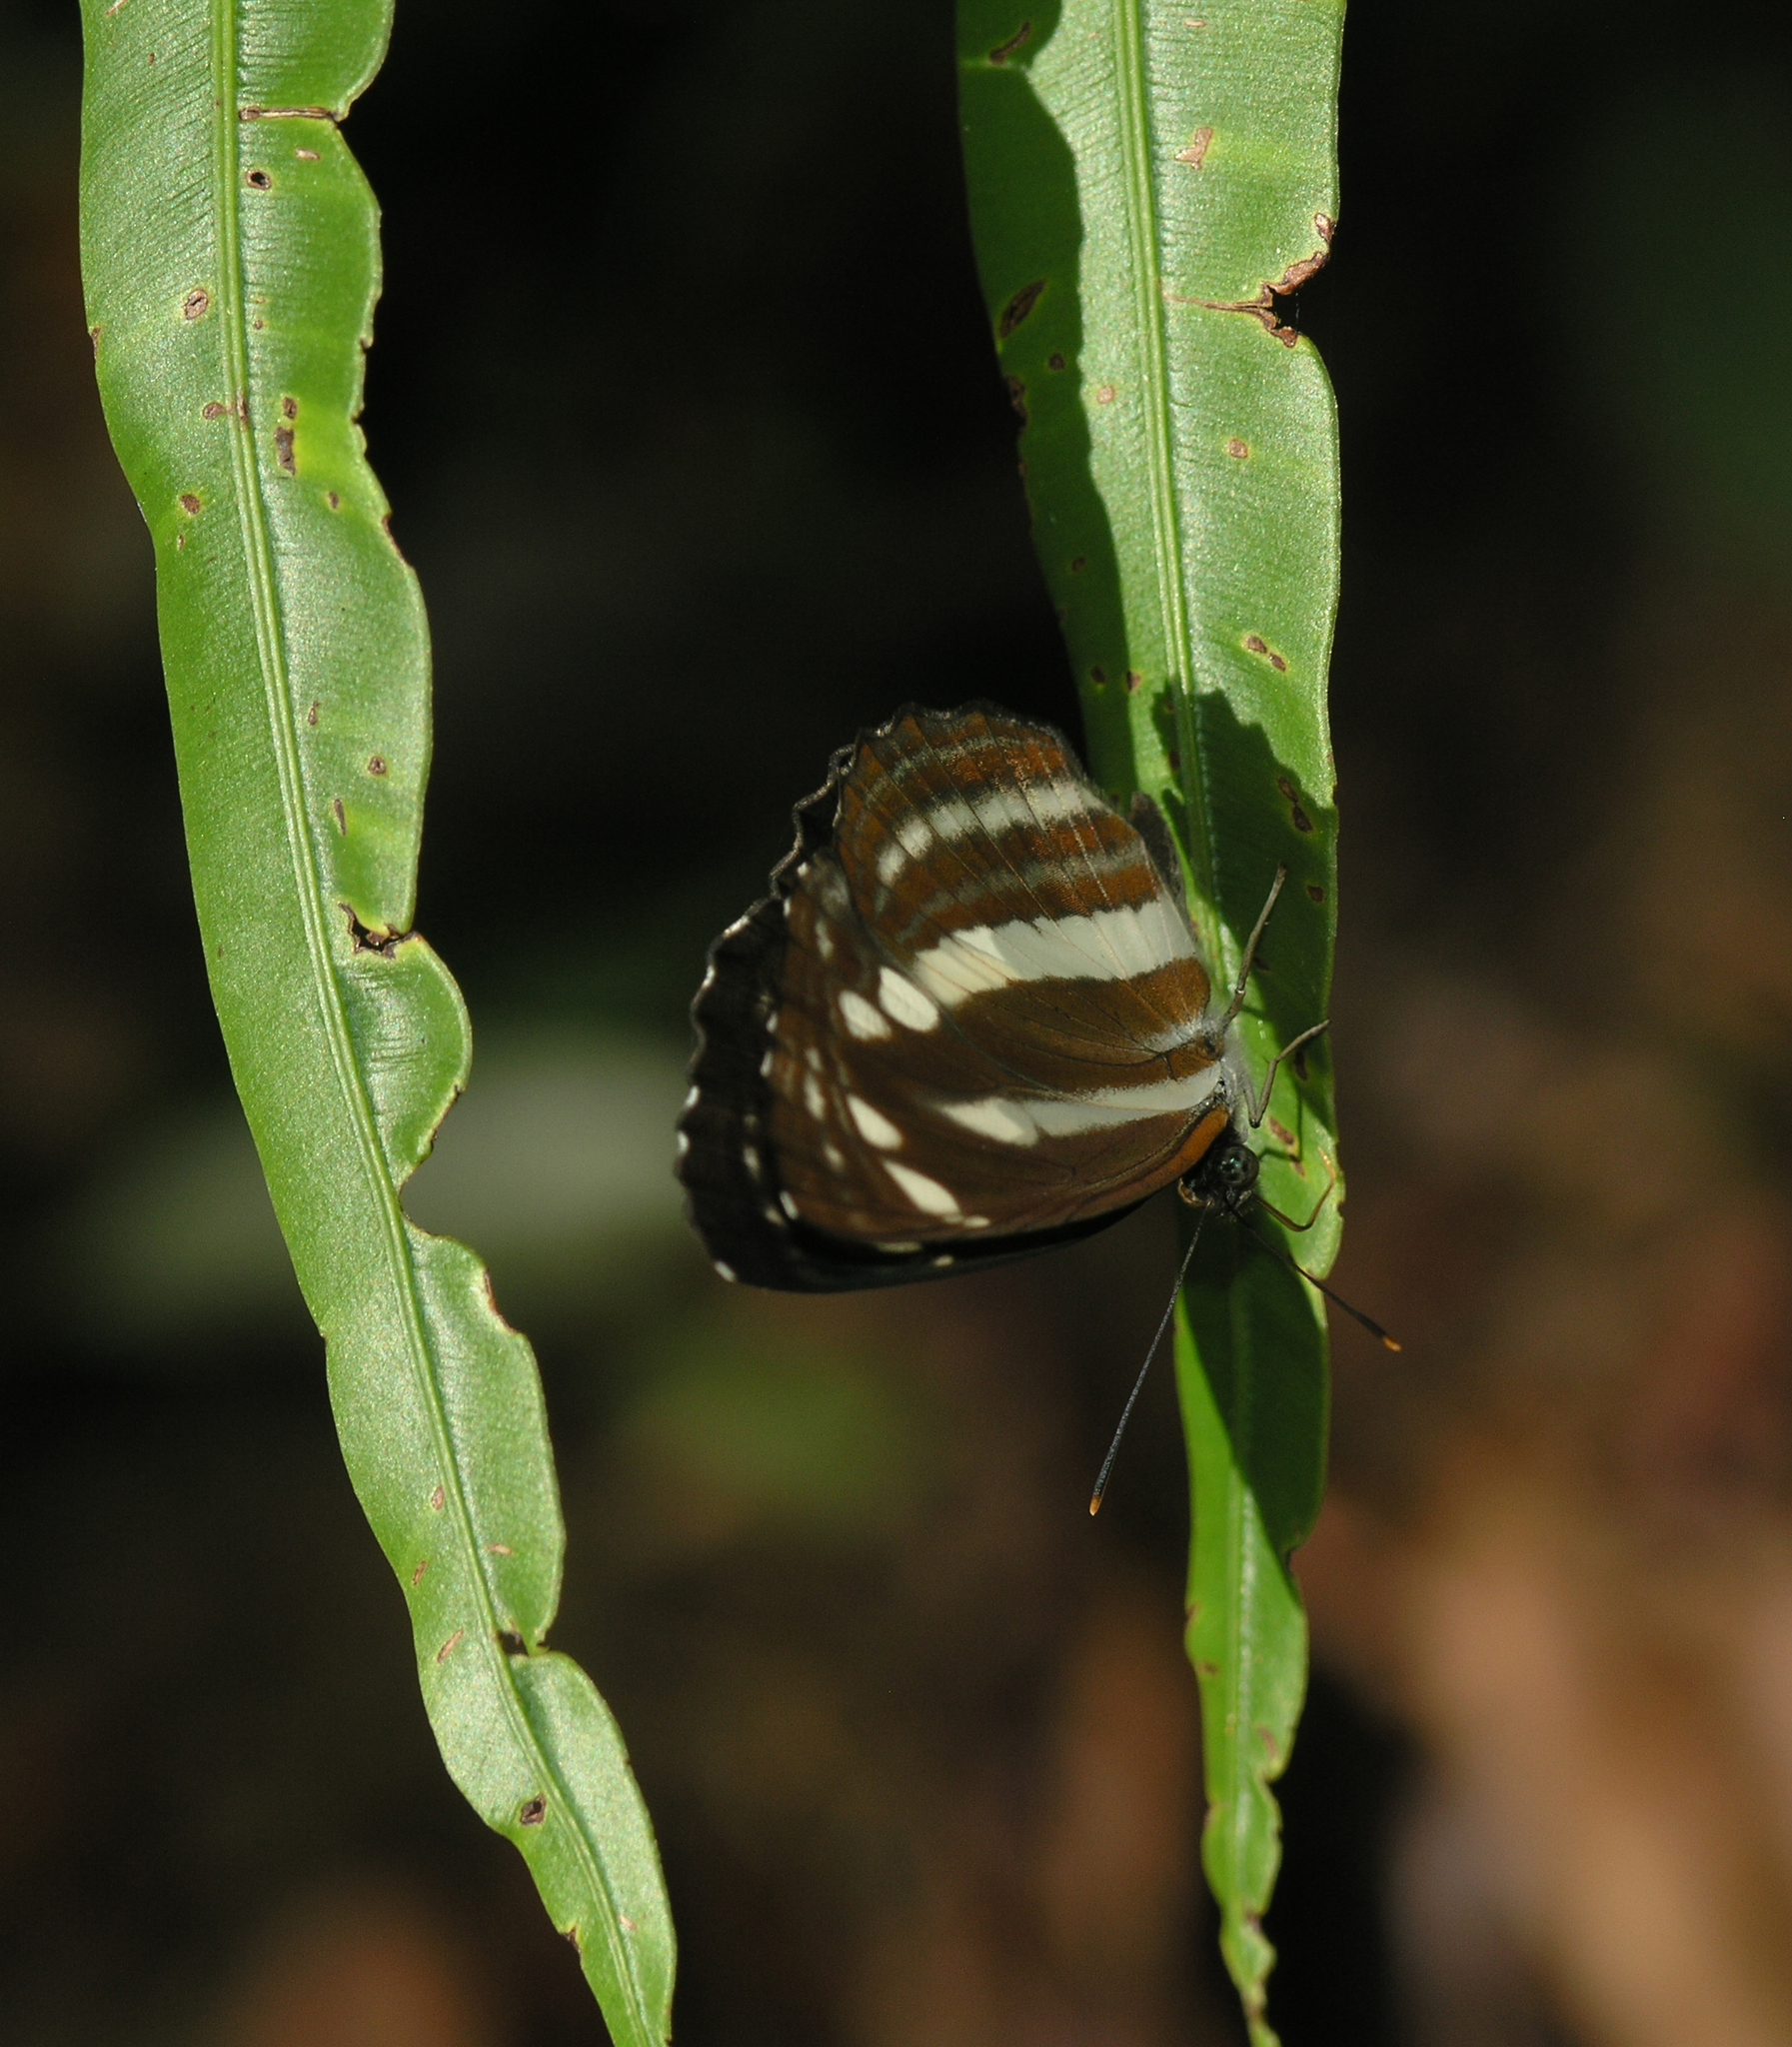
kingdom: Animalia
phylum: Arthropoda
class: Insecta
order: Lepidoptera
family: Nymphalidae
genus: Neptis
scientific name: Neptis clinia
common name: Southern sullied sailer
